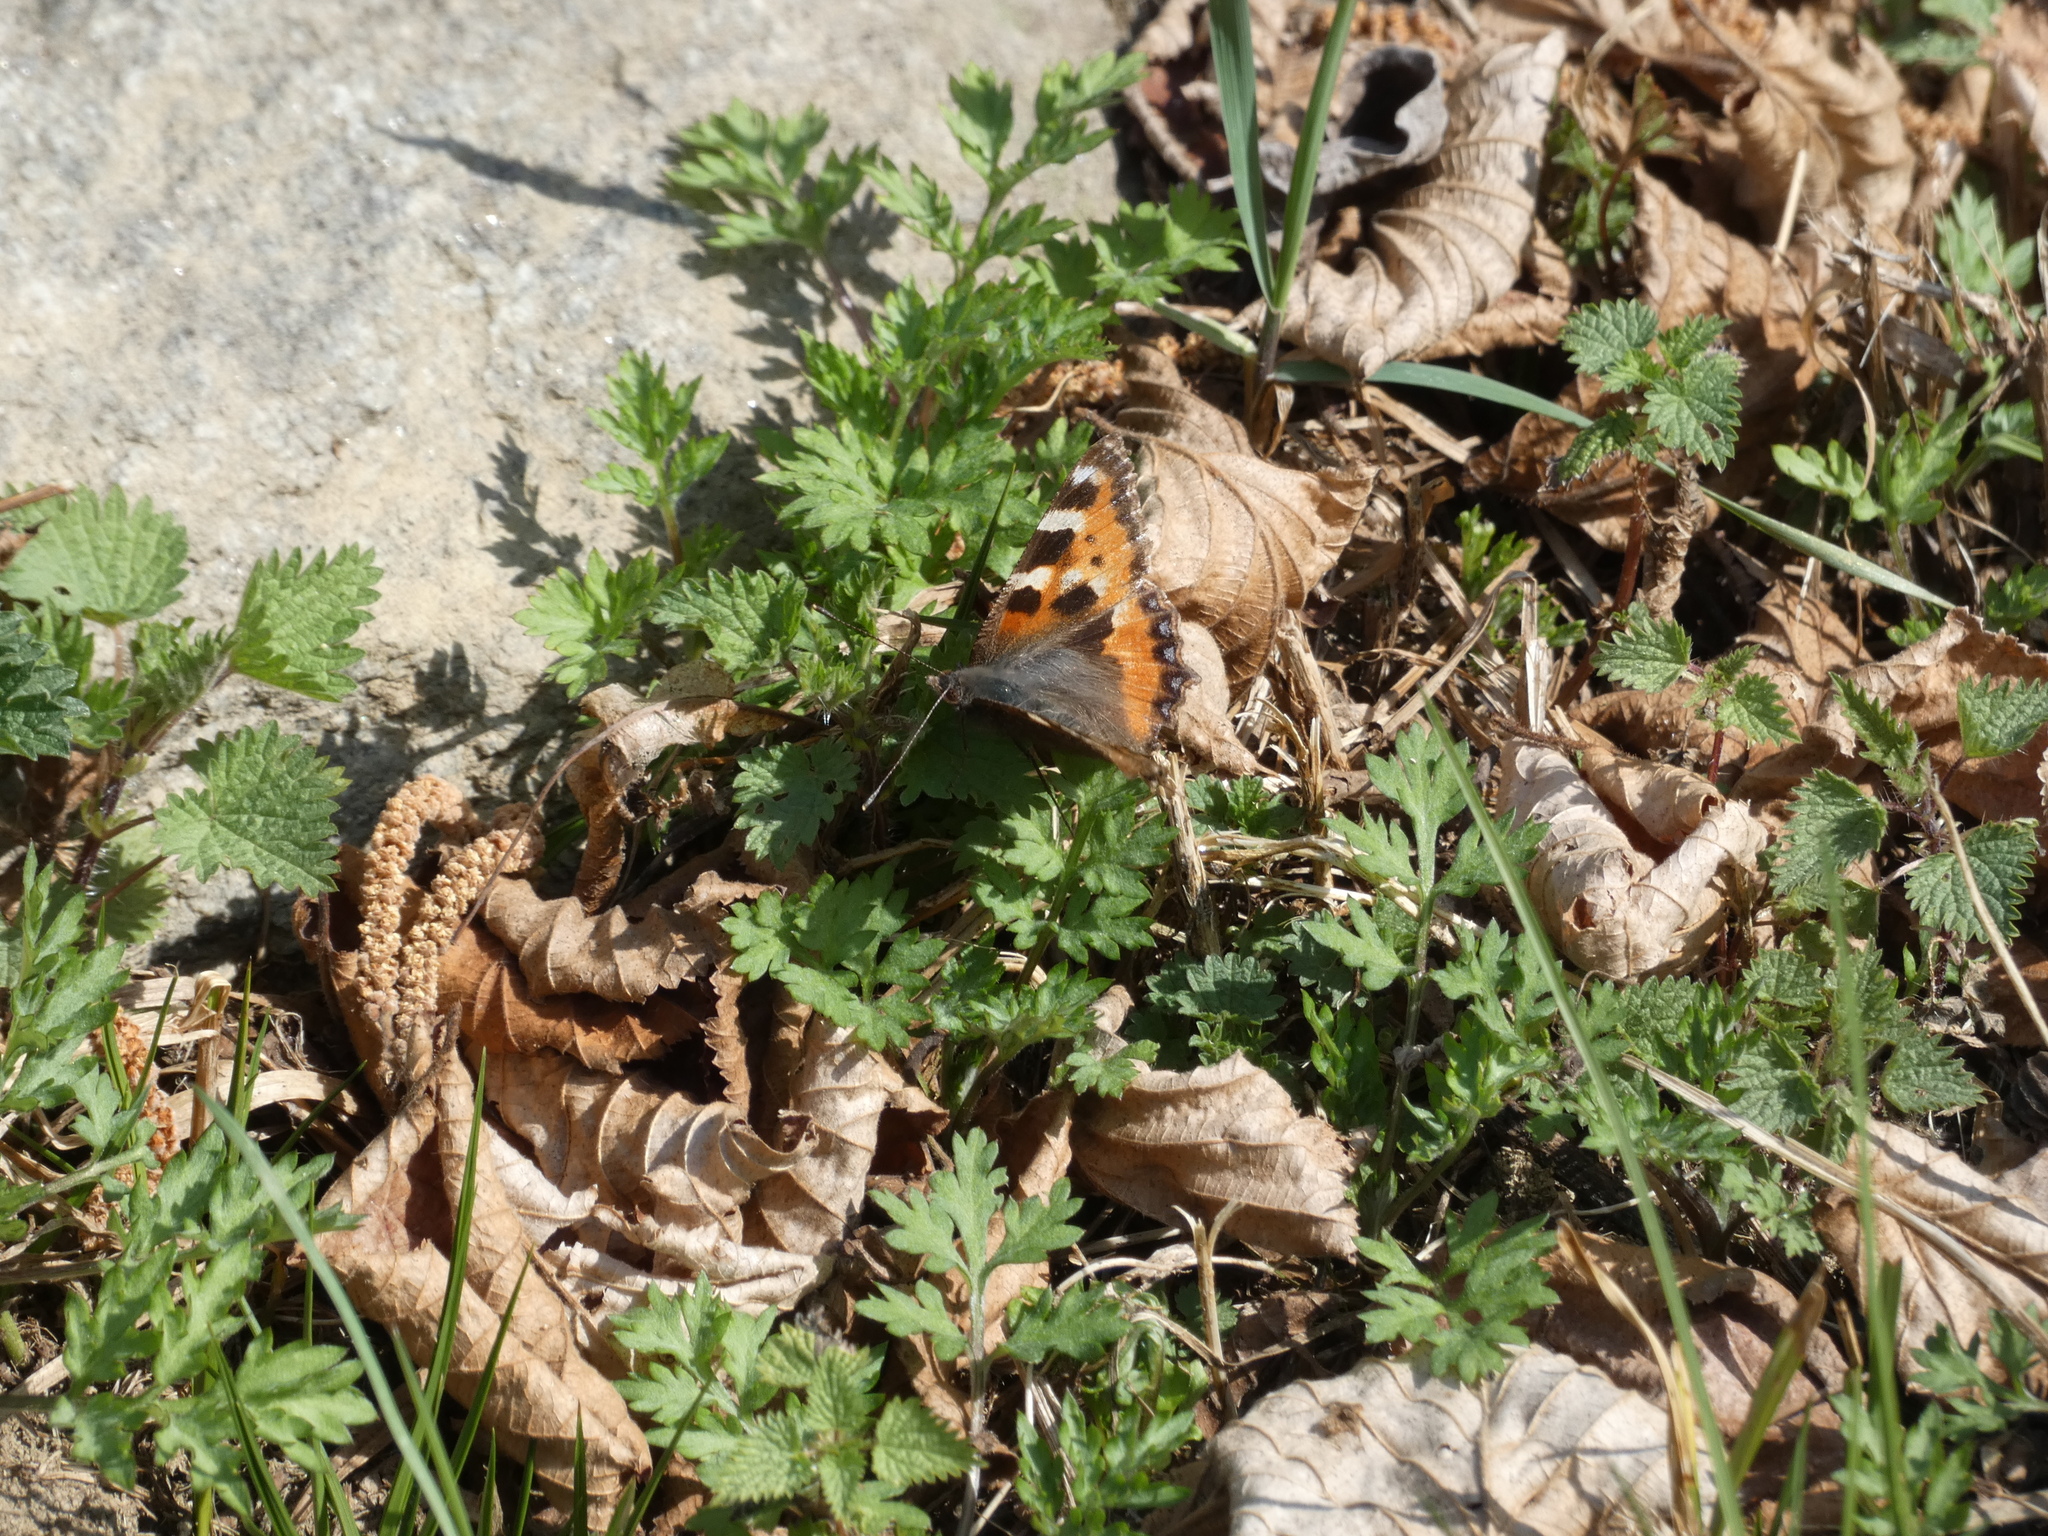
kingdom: Animalia
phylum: Arthropoda
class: Insecta
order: Lepidoptera
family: Nymphalidae
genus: Aglais
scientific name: Aglais urticae
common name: Small tortoiseshell
